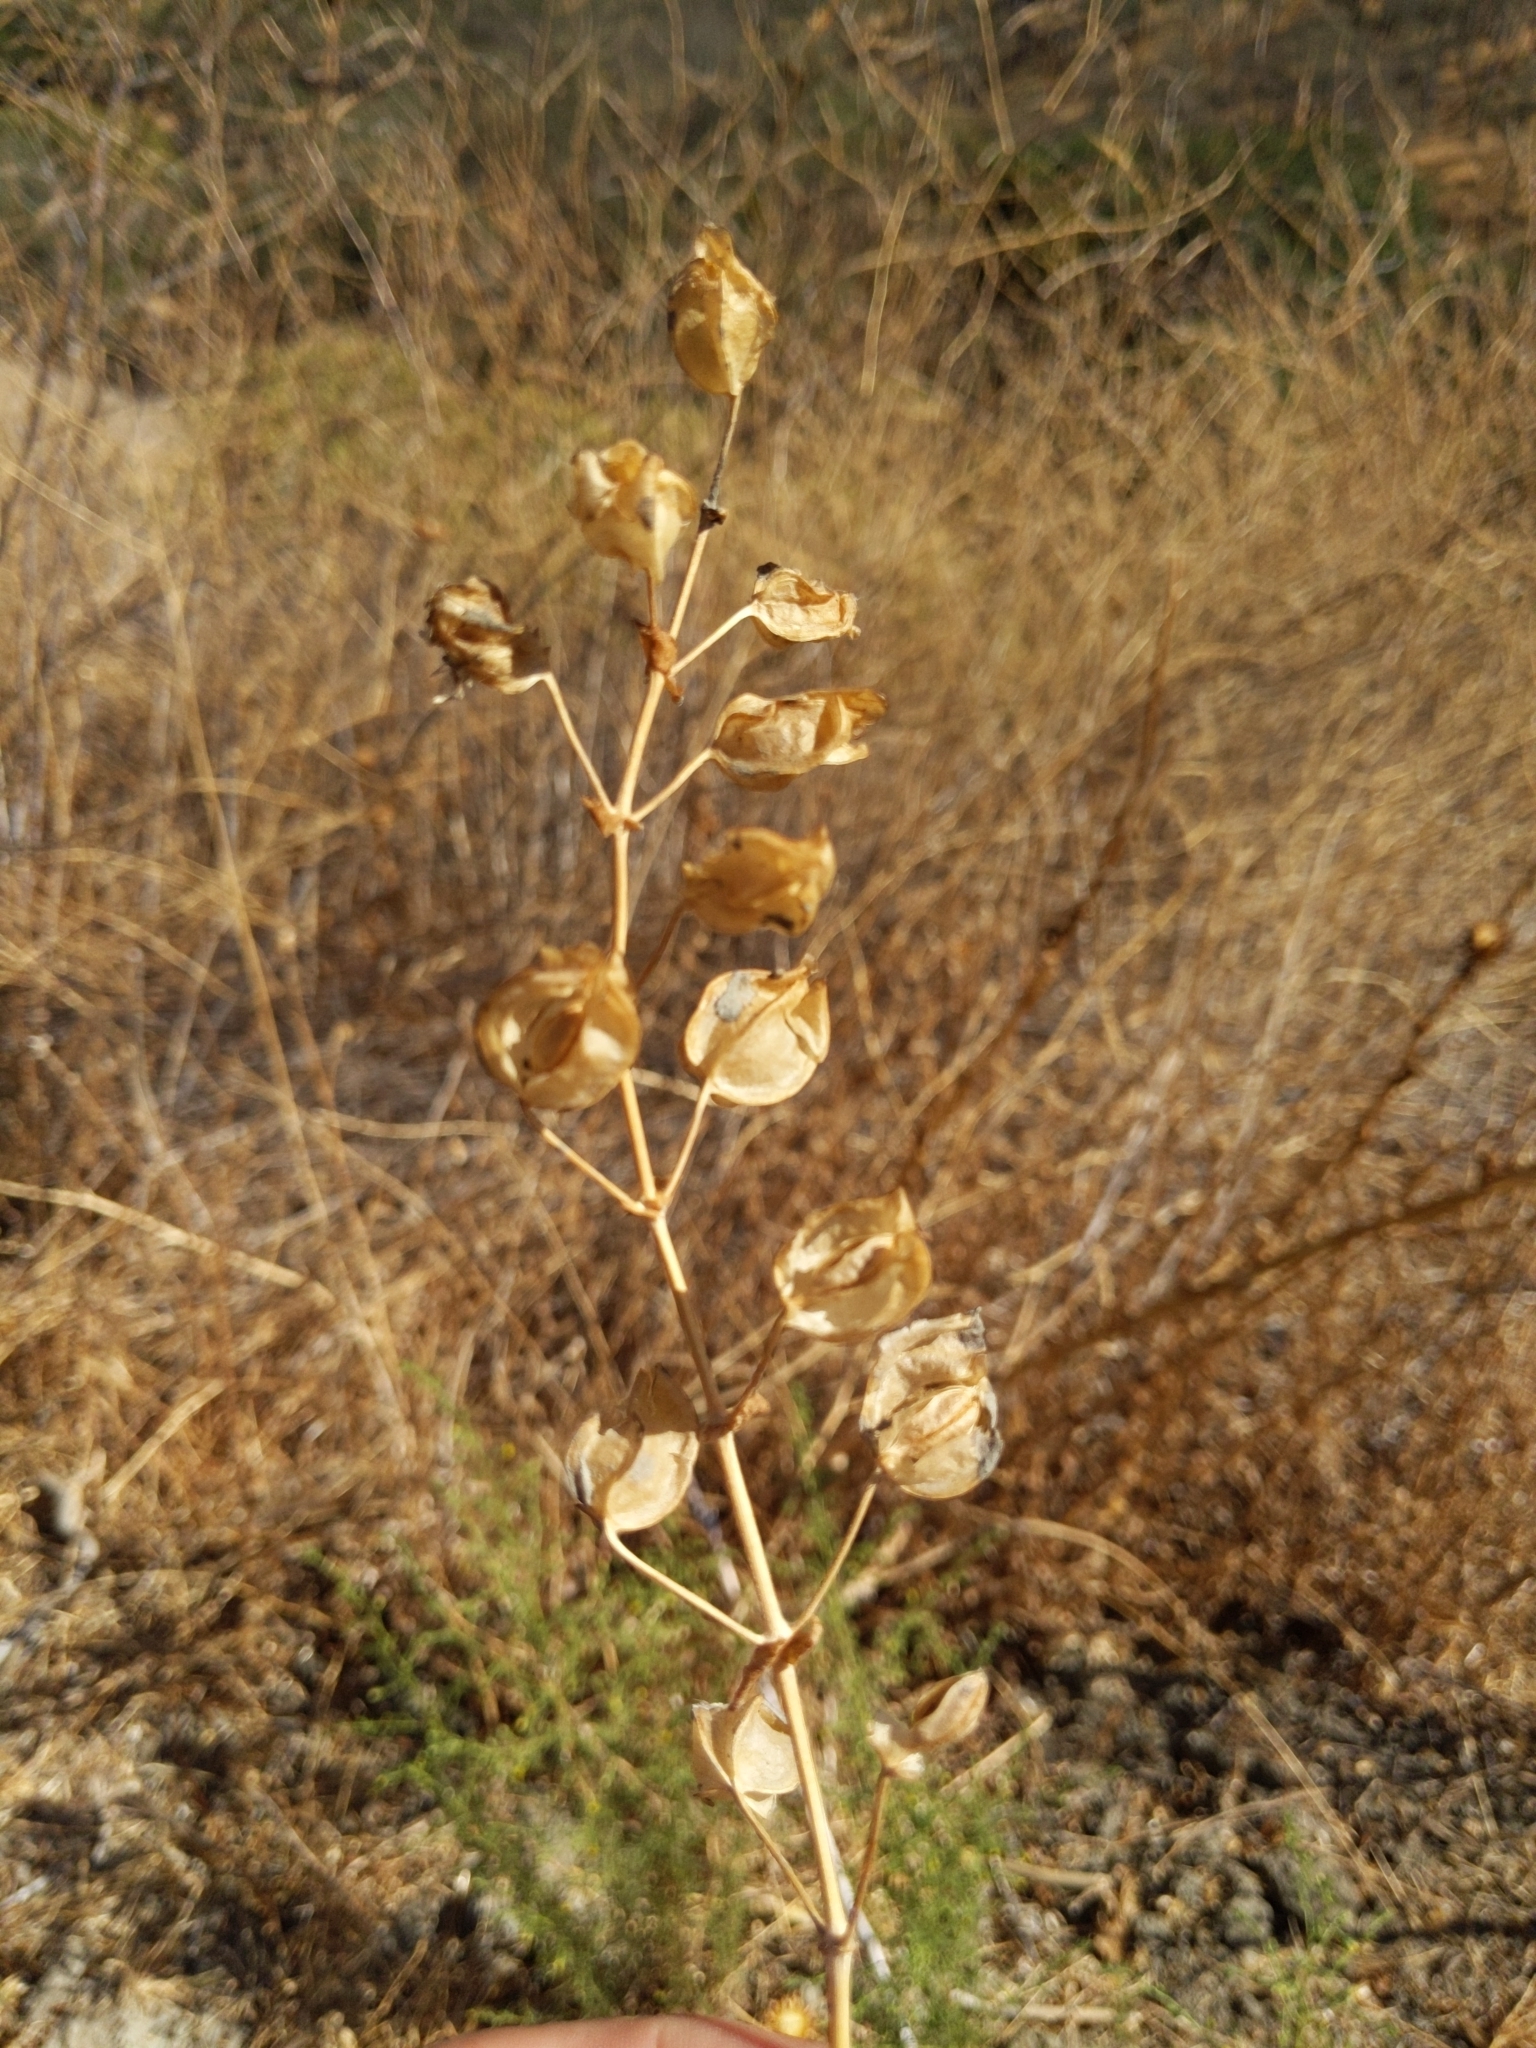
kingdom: Plantae
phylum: Tracheophyta
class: Magnoliopsida
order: Lamiales
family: Phrymaceae
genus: Erythranthe
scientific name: Erythranthe guttata
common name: Monkeyflower
